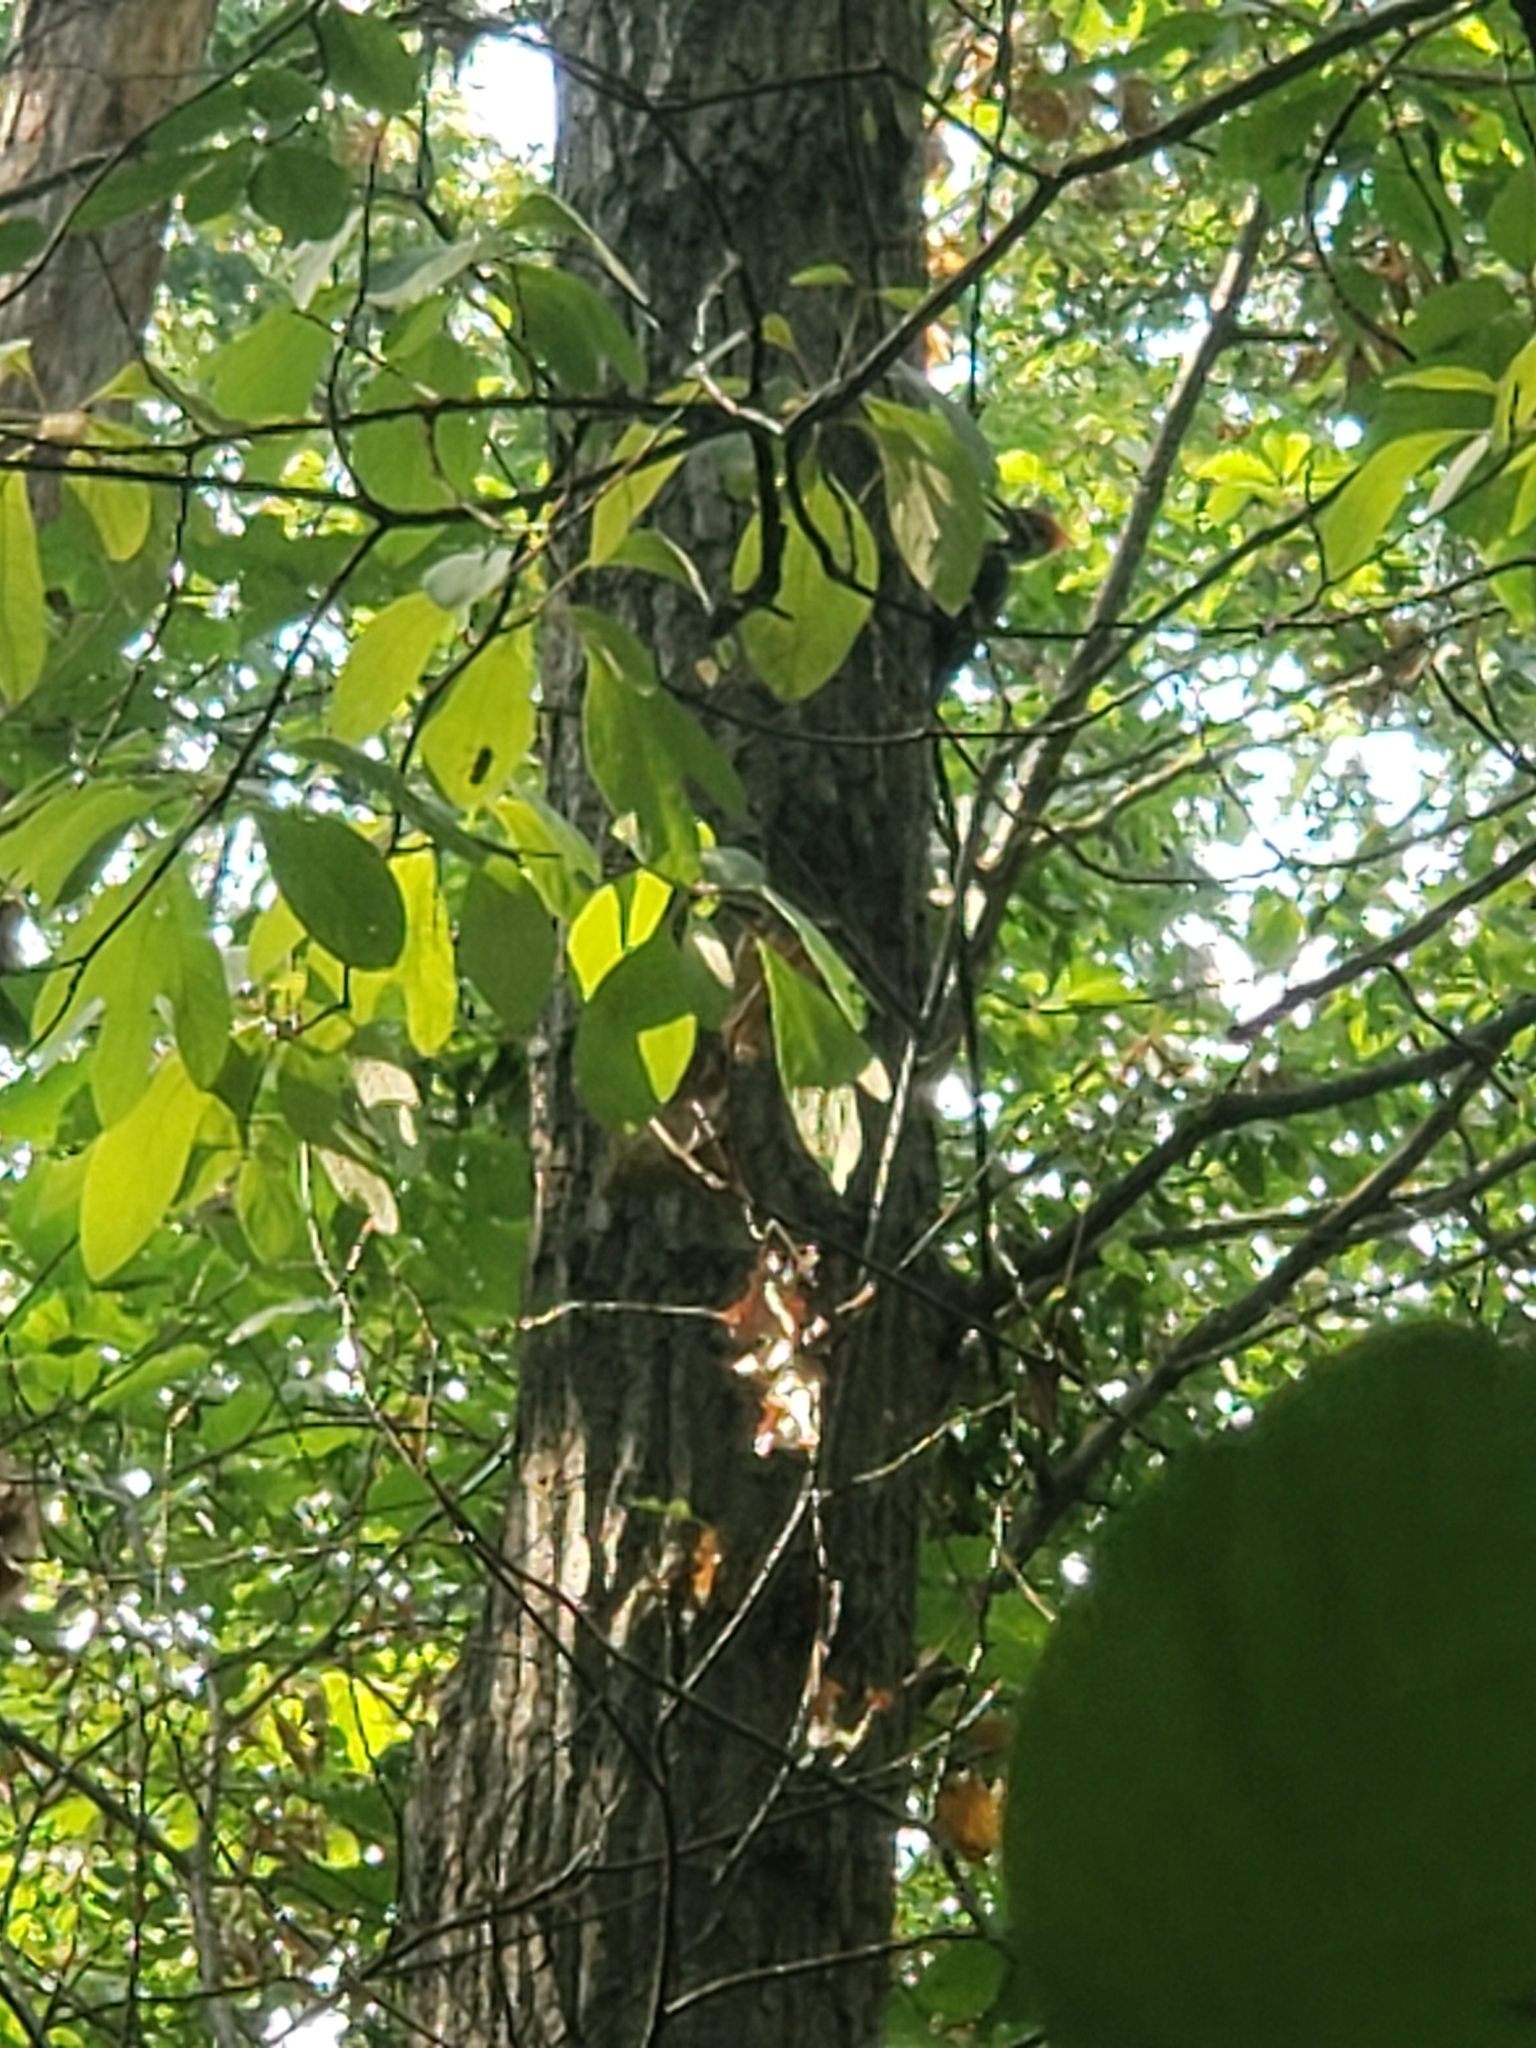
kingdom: Animalia
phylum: Chordata
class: Aves
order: Piciformes
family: Picidae
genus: Dryocopus
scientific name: Dryocopus pileatus
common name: Pileated woodpecker
